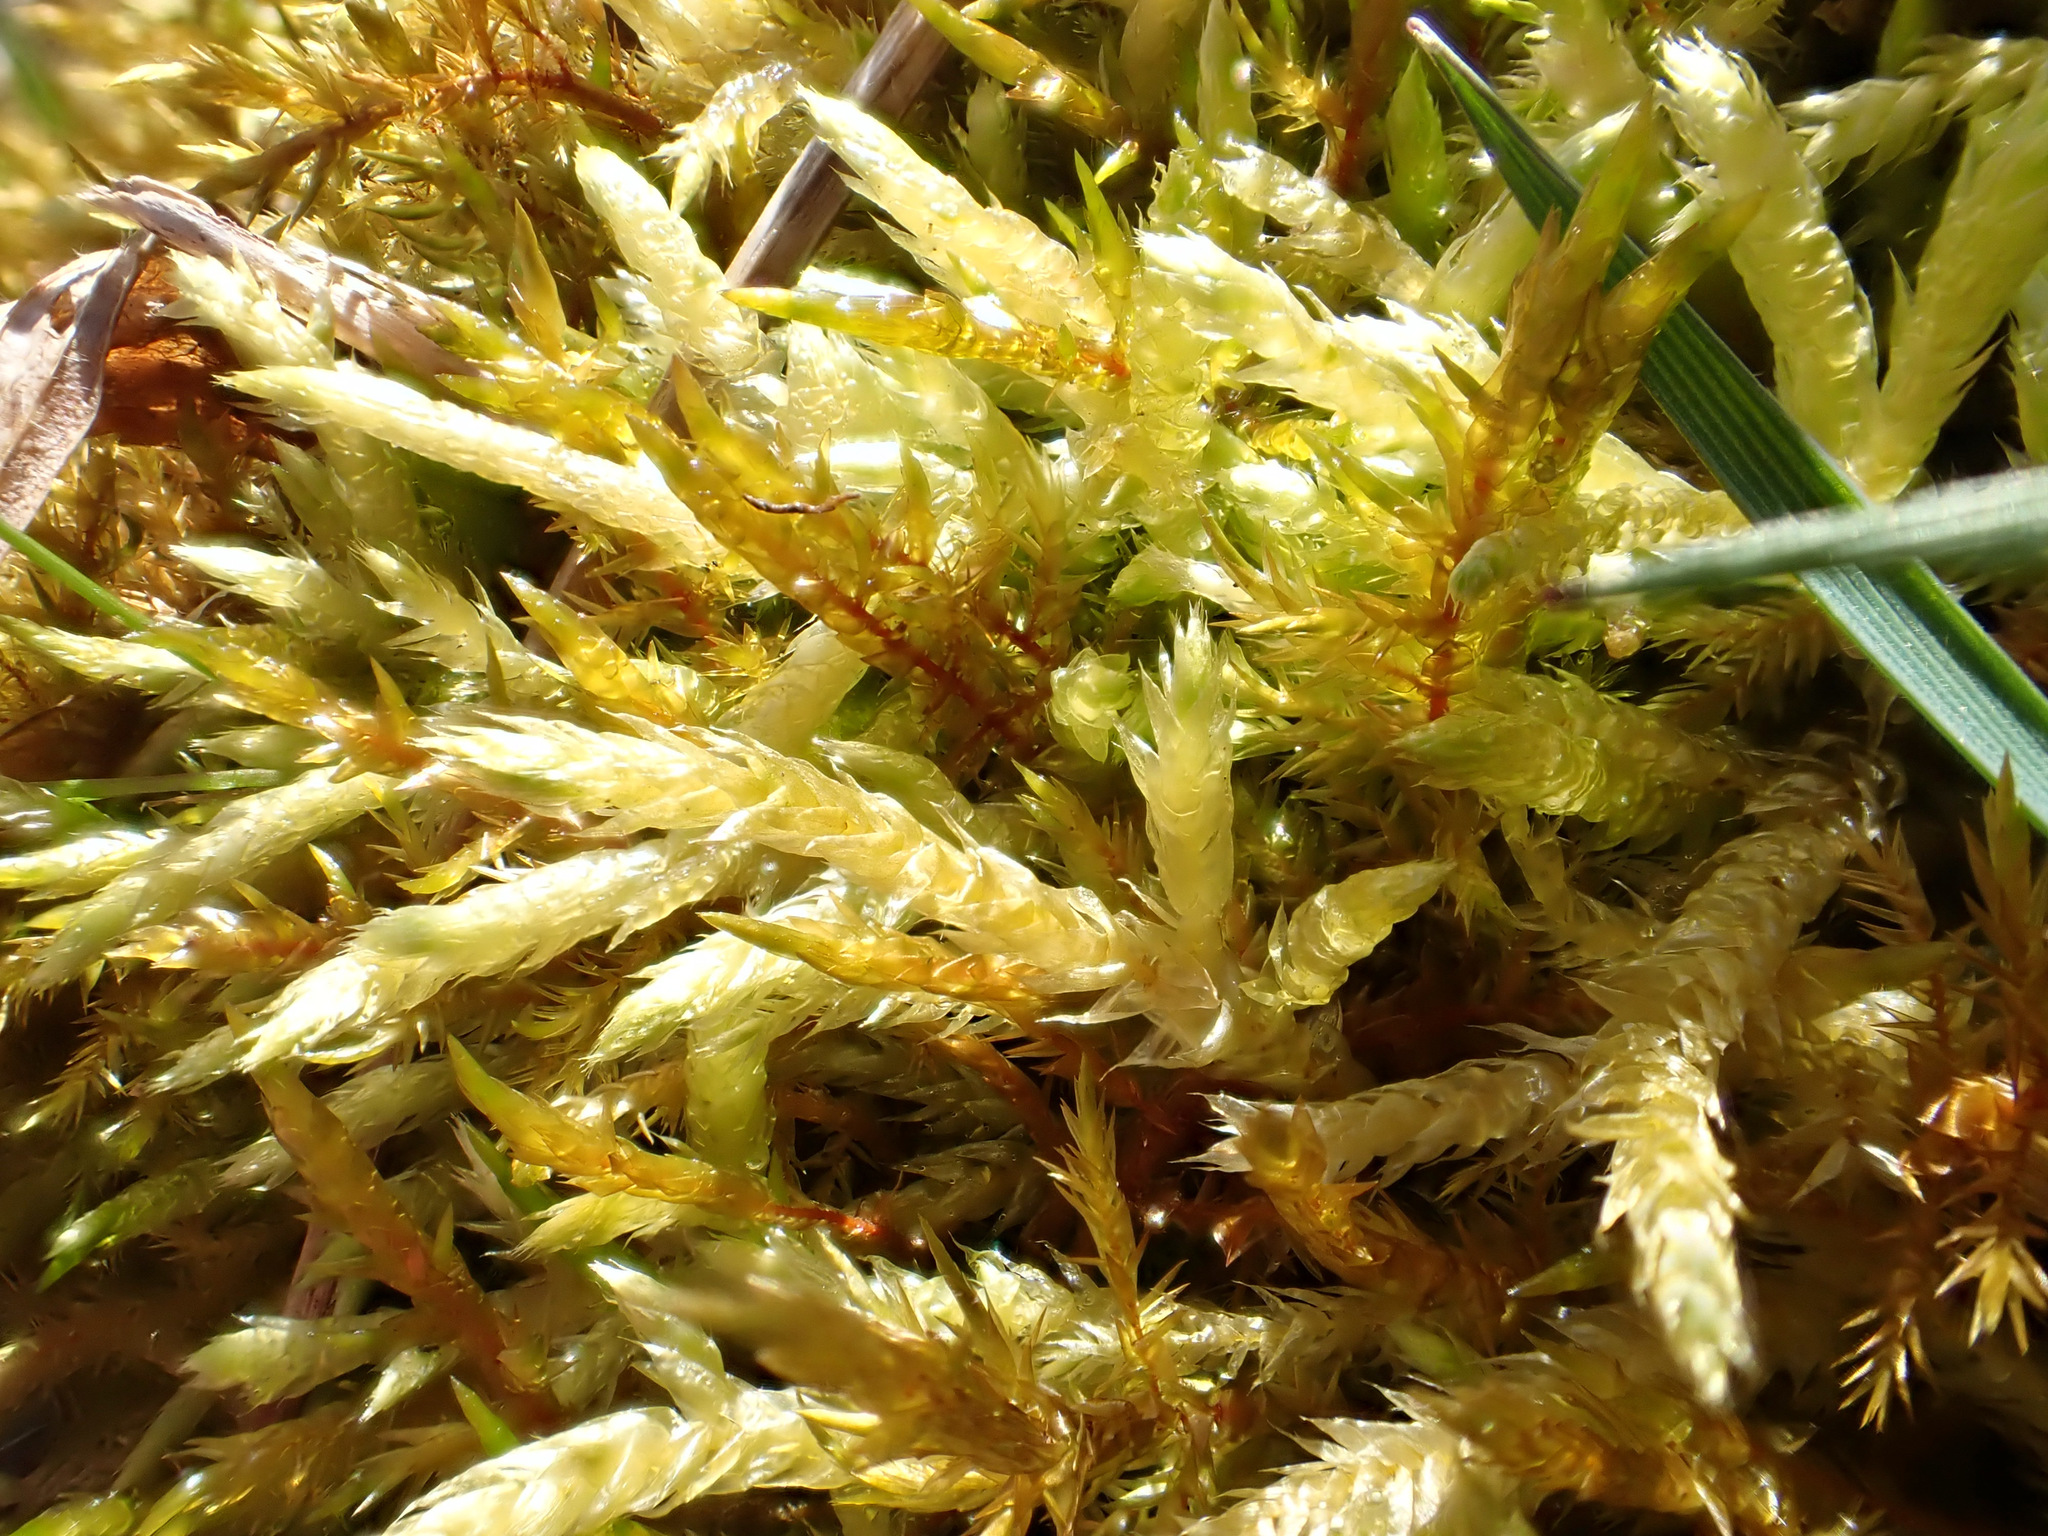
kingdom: Plantae
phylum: Bryophyta
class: Bryopsida
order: Hypnales
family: Pylaisiaceae
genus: Calliergonella
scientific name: Calliergonella cuspidata
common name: Common large wetland moss
